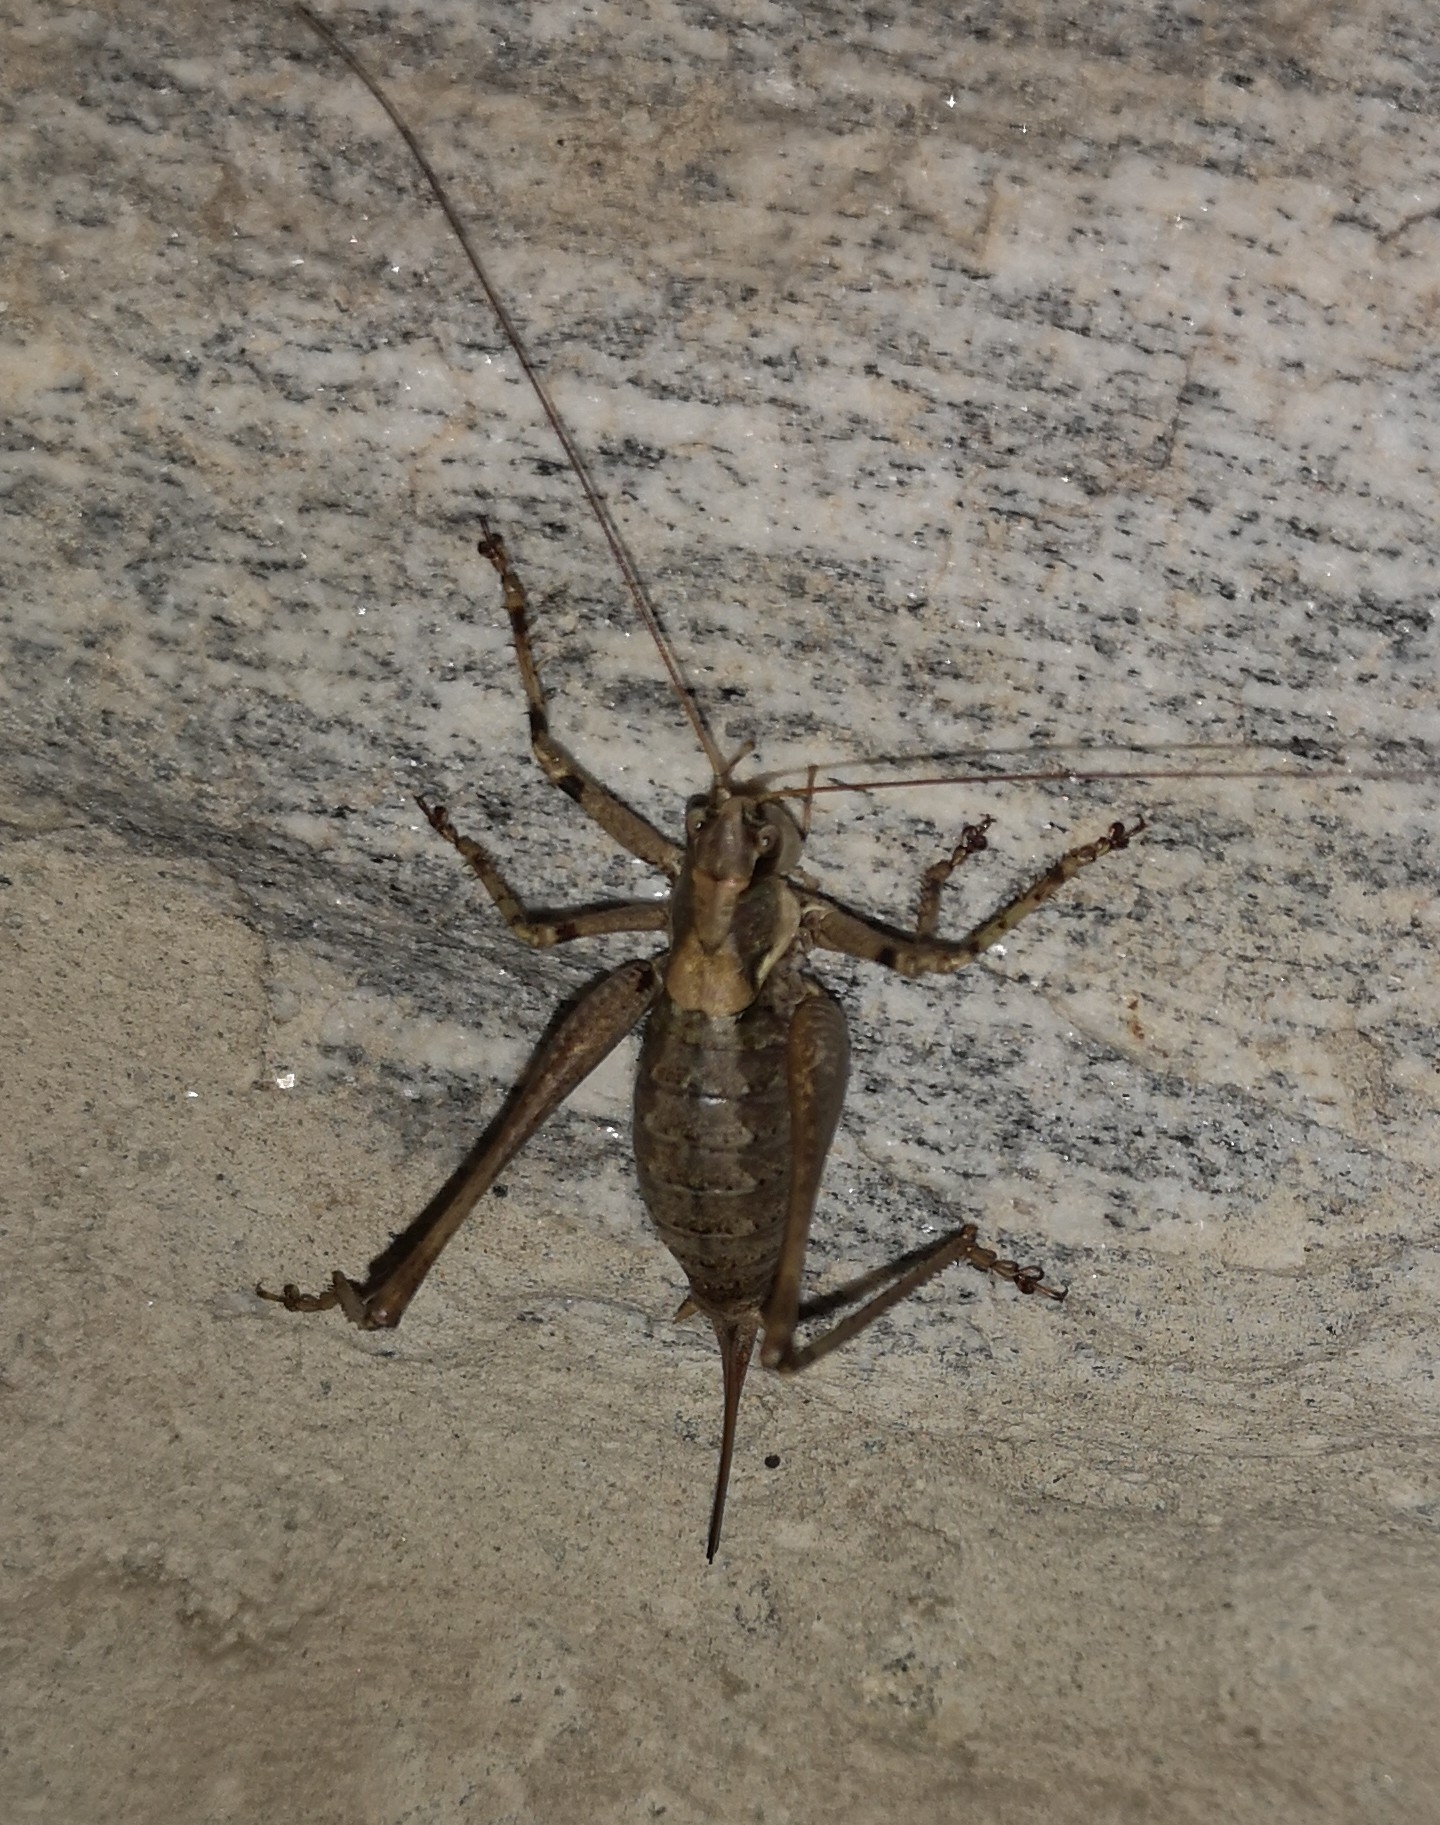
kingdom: Animalia
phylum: Arthropoda
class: Insecta
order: Orthoptera
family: Tettigoniidae
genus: Antaxius
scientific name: Antaxius pedestris
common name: Common mountain bush-cricket
